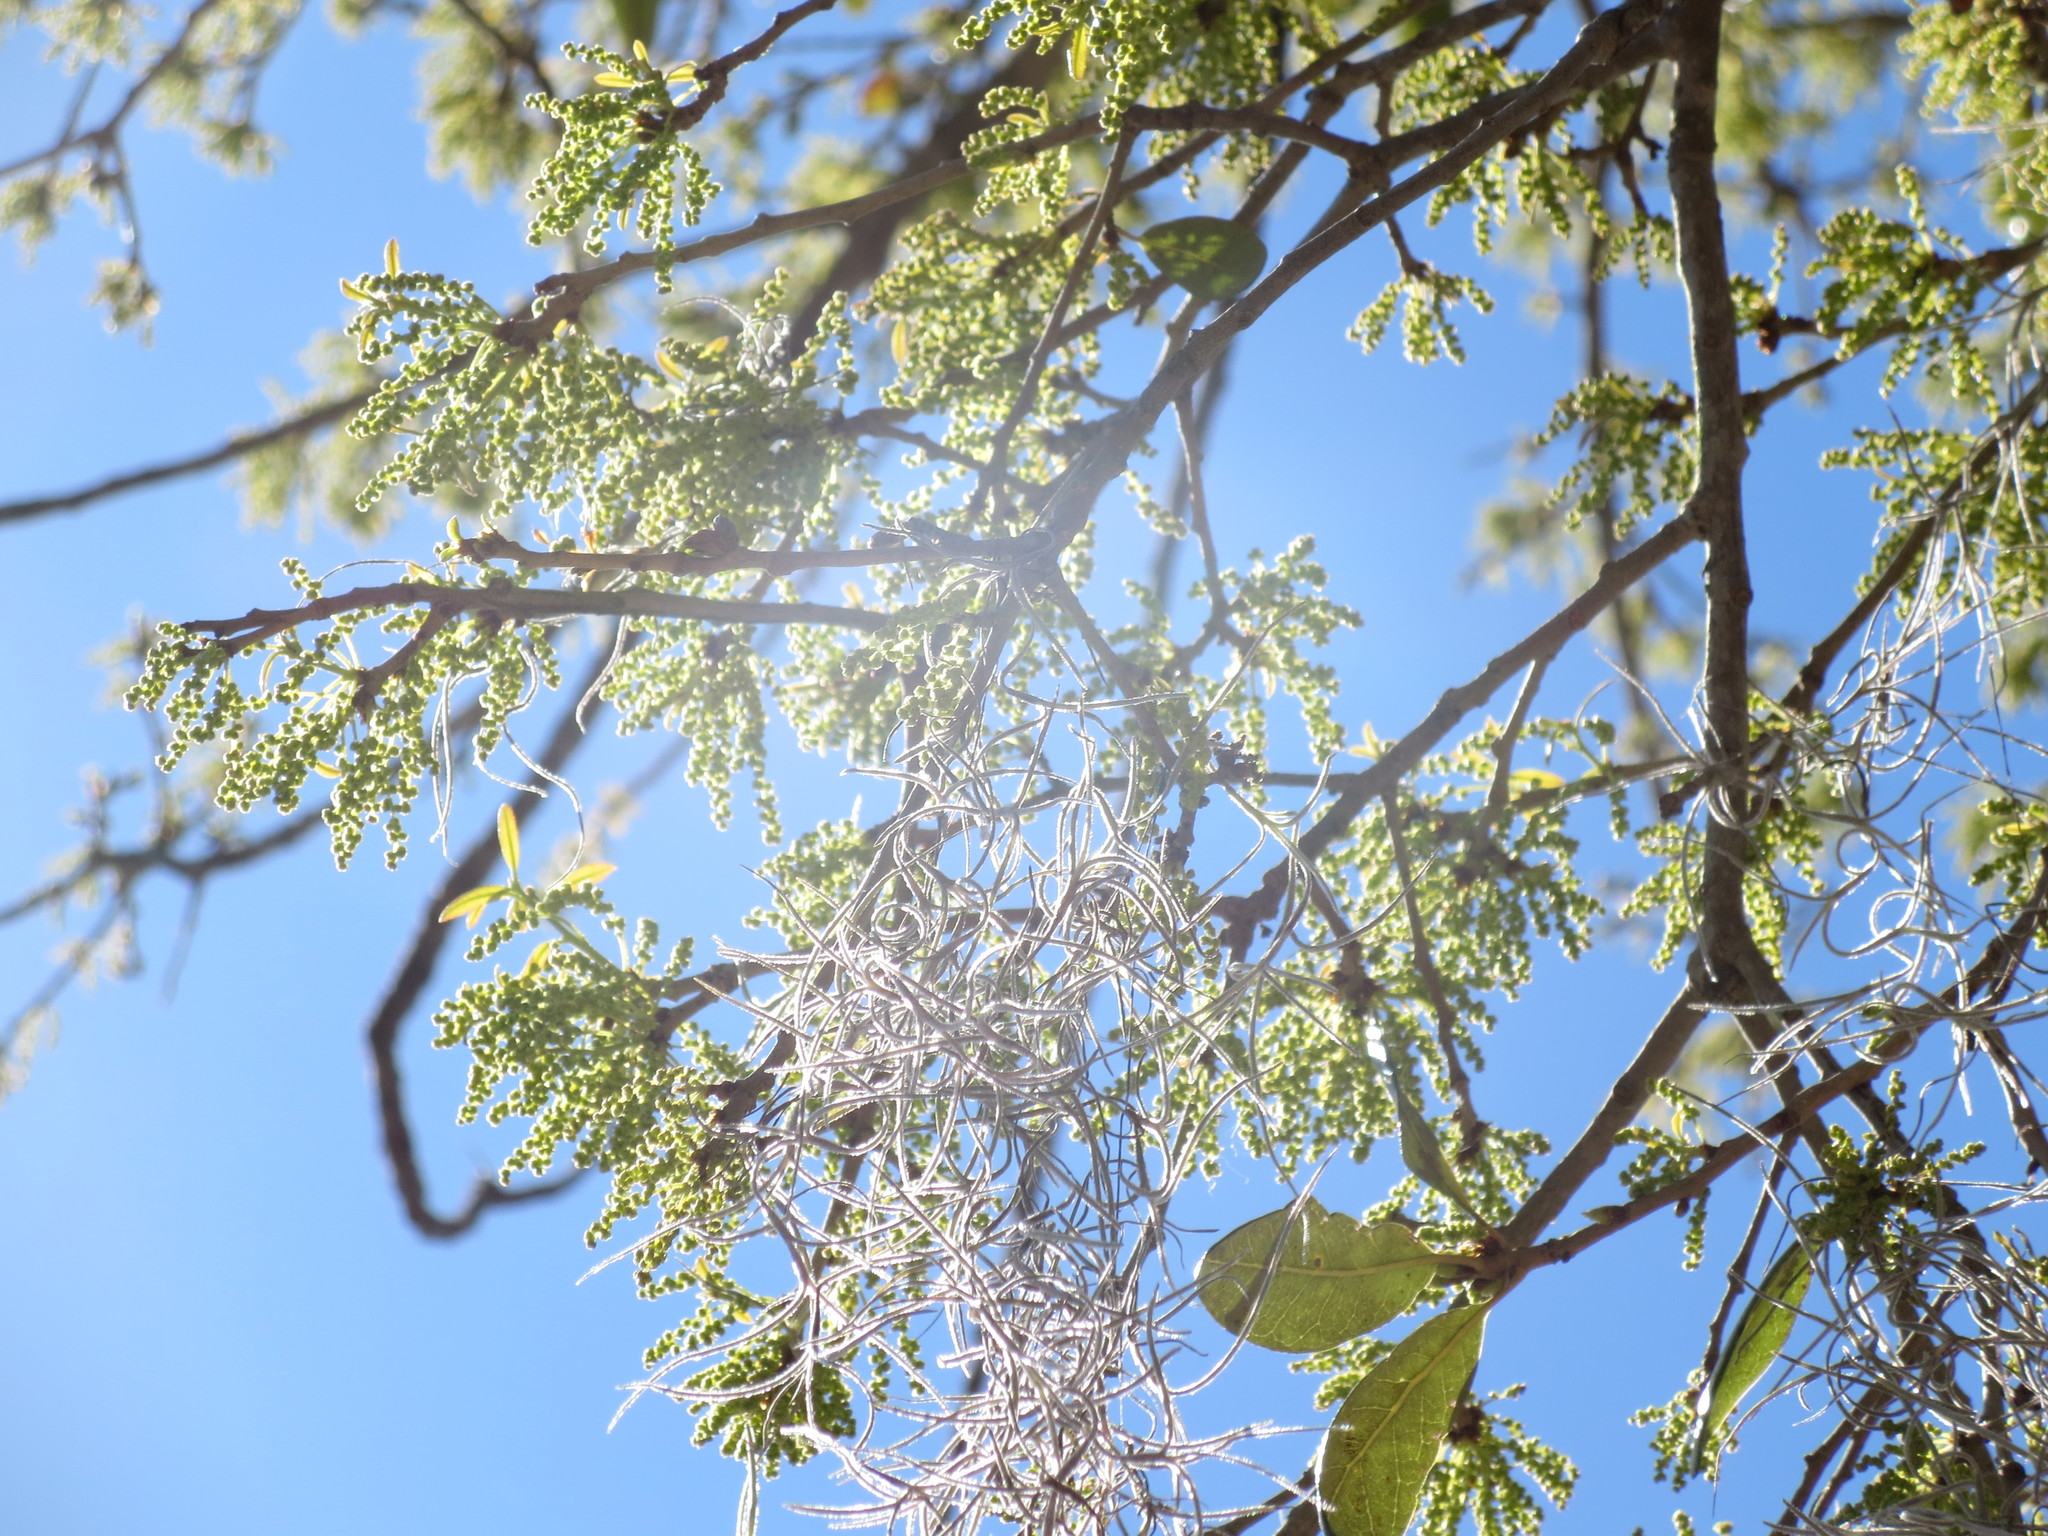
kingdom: Plantae
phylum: Tracheophyta
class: Liliopsida
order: Poales
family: Bromeliaceae
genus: Tillandsia
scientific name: Tillandsia usneoides
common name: Spanish moss
